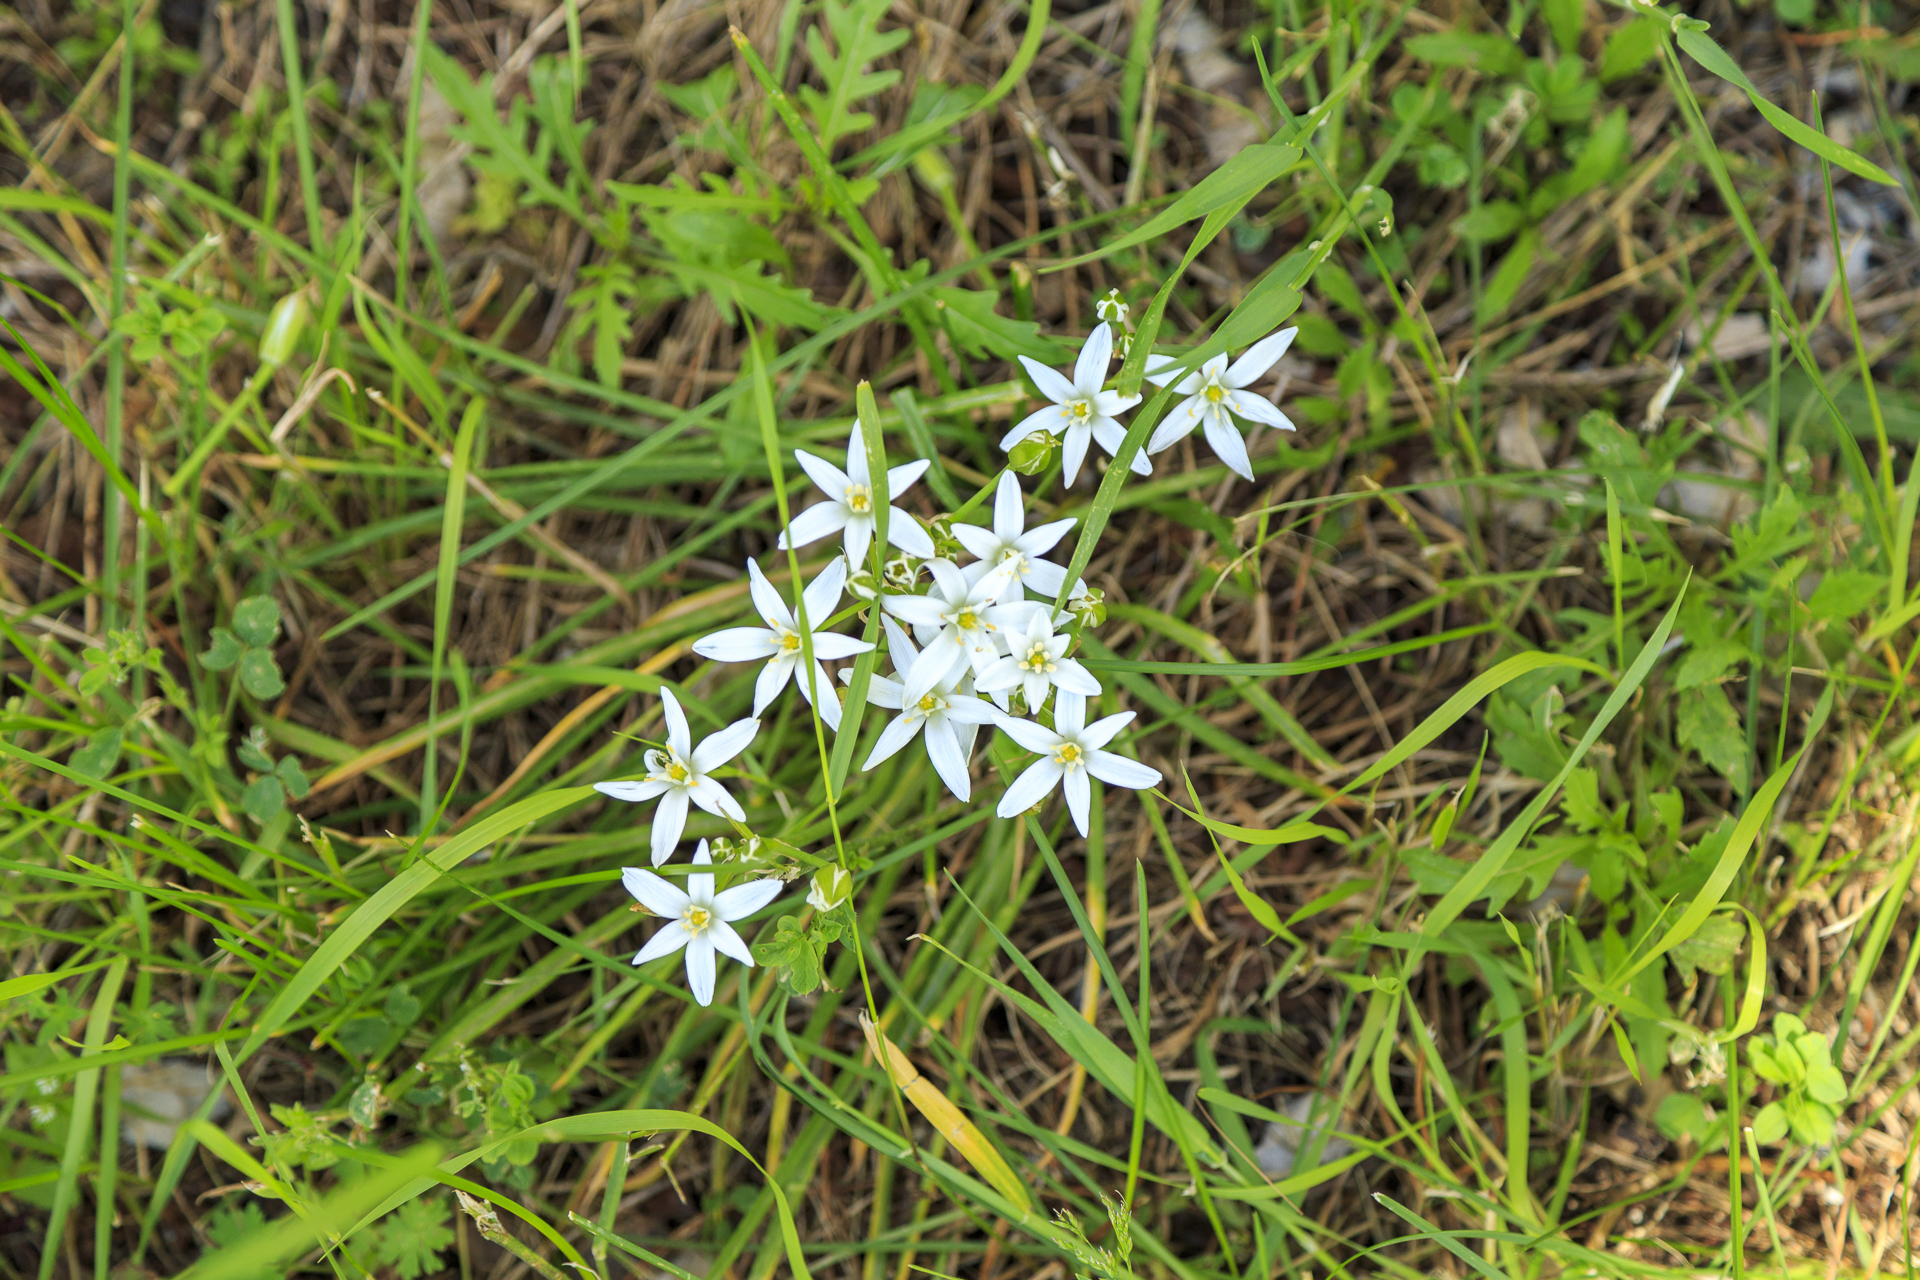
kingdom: Plantae
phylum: Tracheophyta
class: Liliopsida
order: Asparagales
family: Asparagaceae
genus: Ornithogalum
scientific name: Ornithogalum umbellatum
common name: Garden star-of-bethlehem
